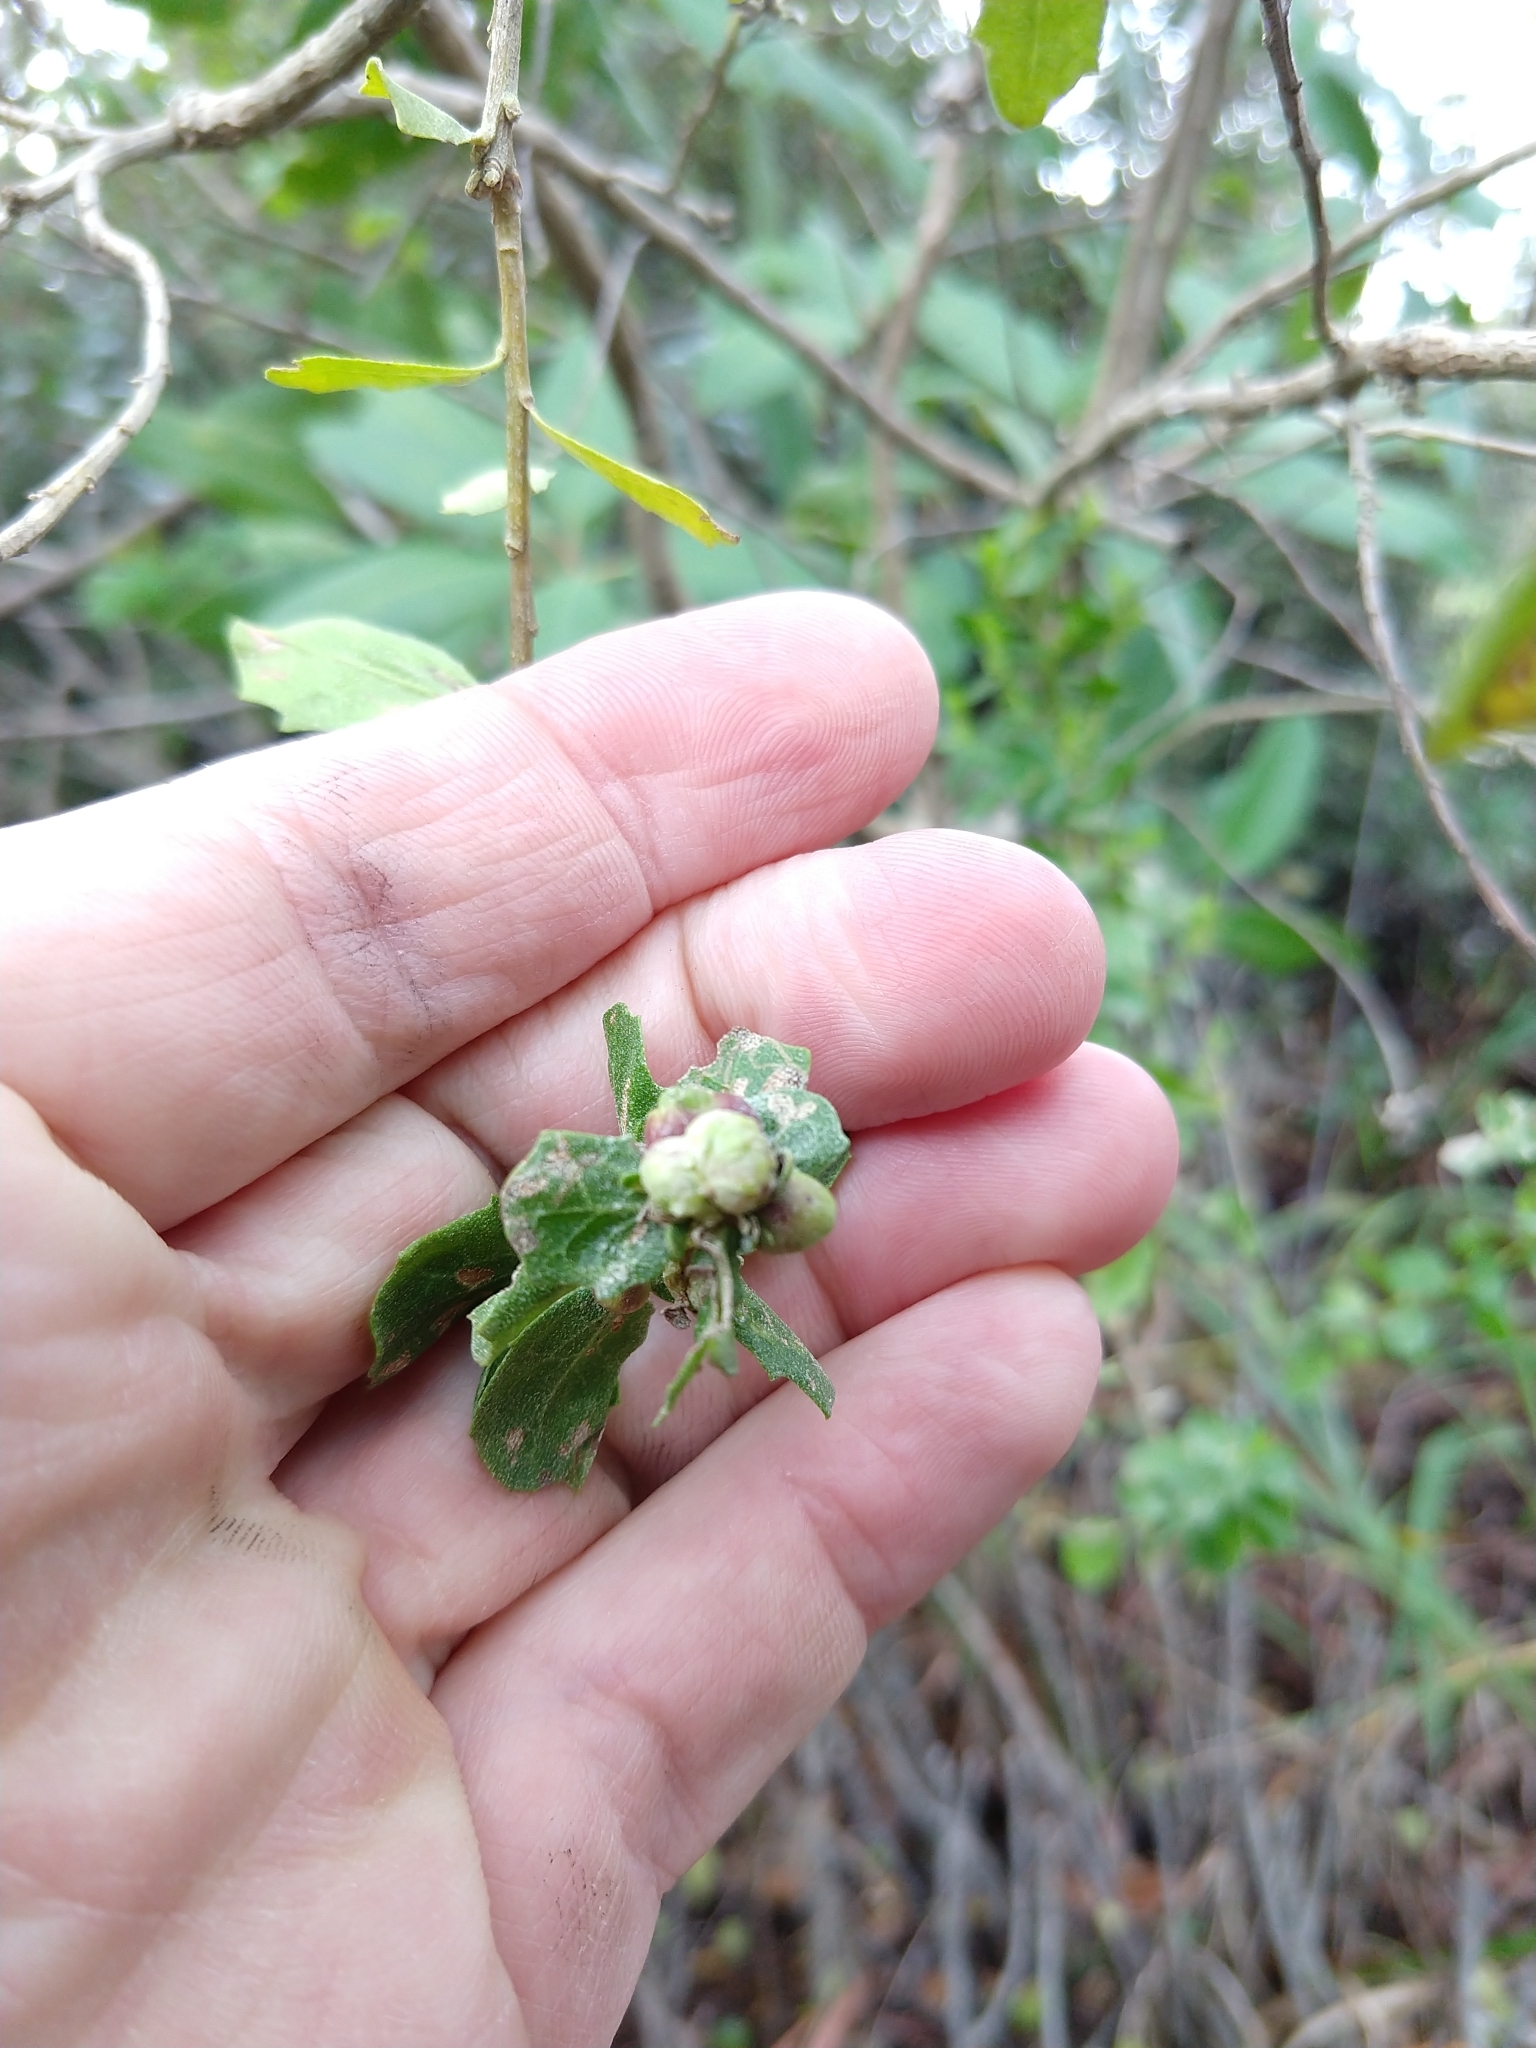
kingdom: Animalia
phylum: Arthropoda
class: Insecta
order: Diptera
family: Cecidomyiidae
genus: Rhopalomyia
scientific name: Rhopalomyia californica
